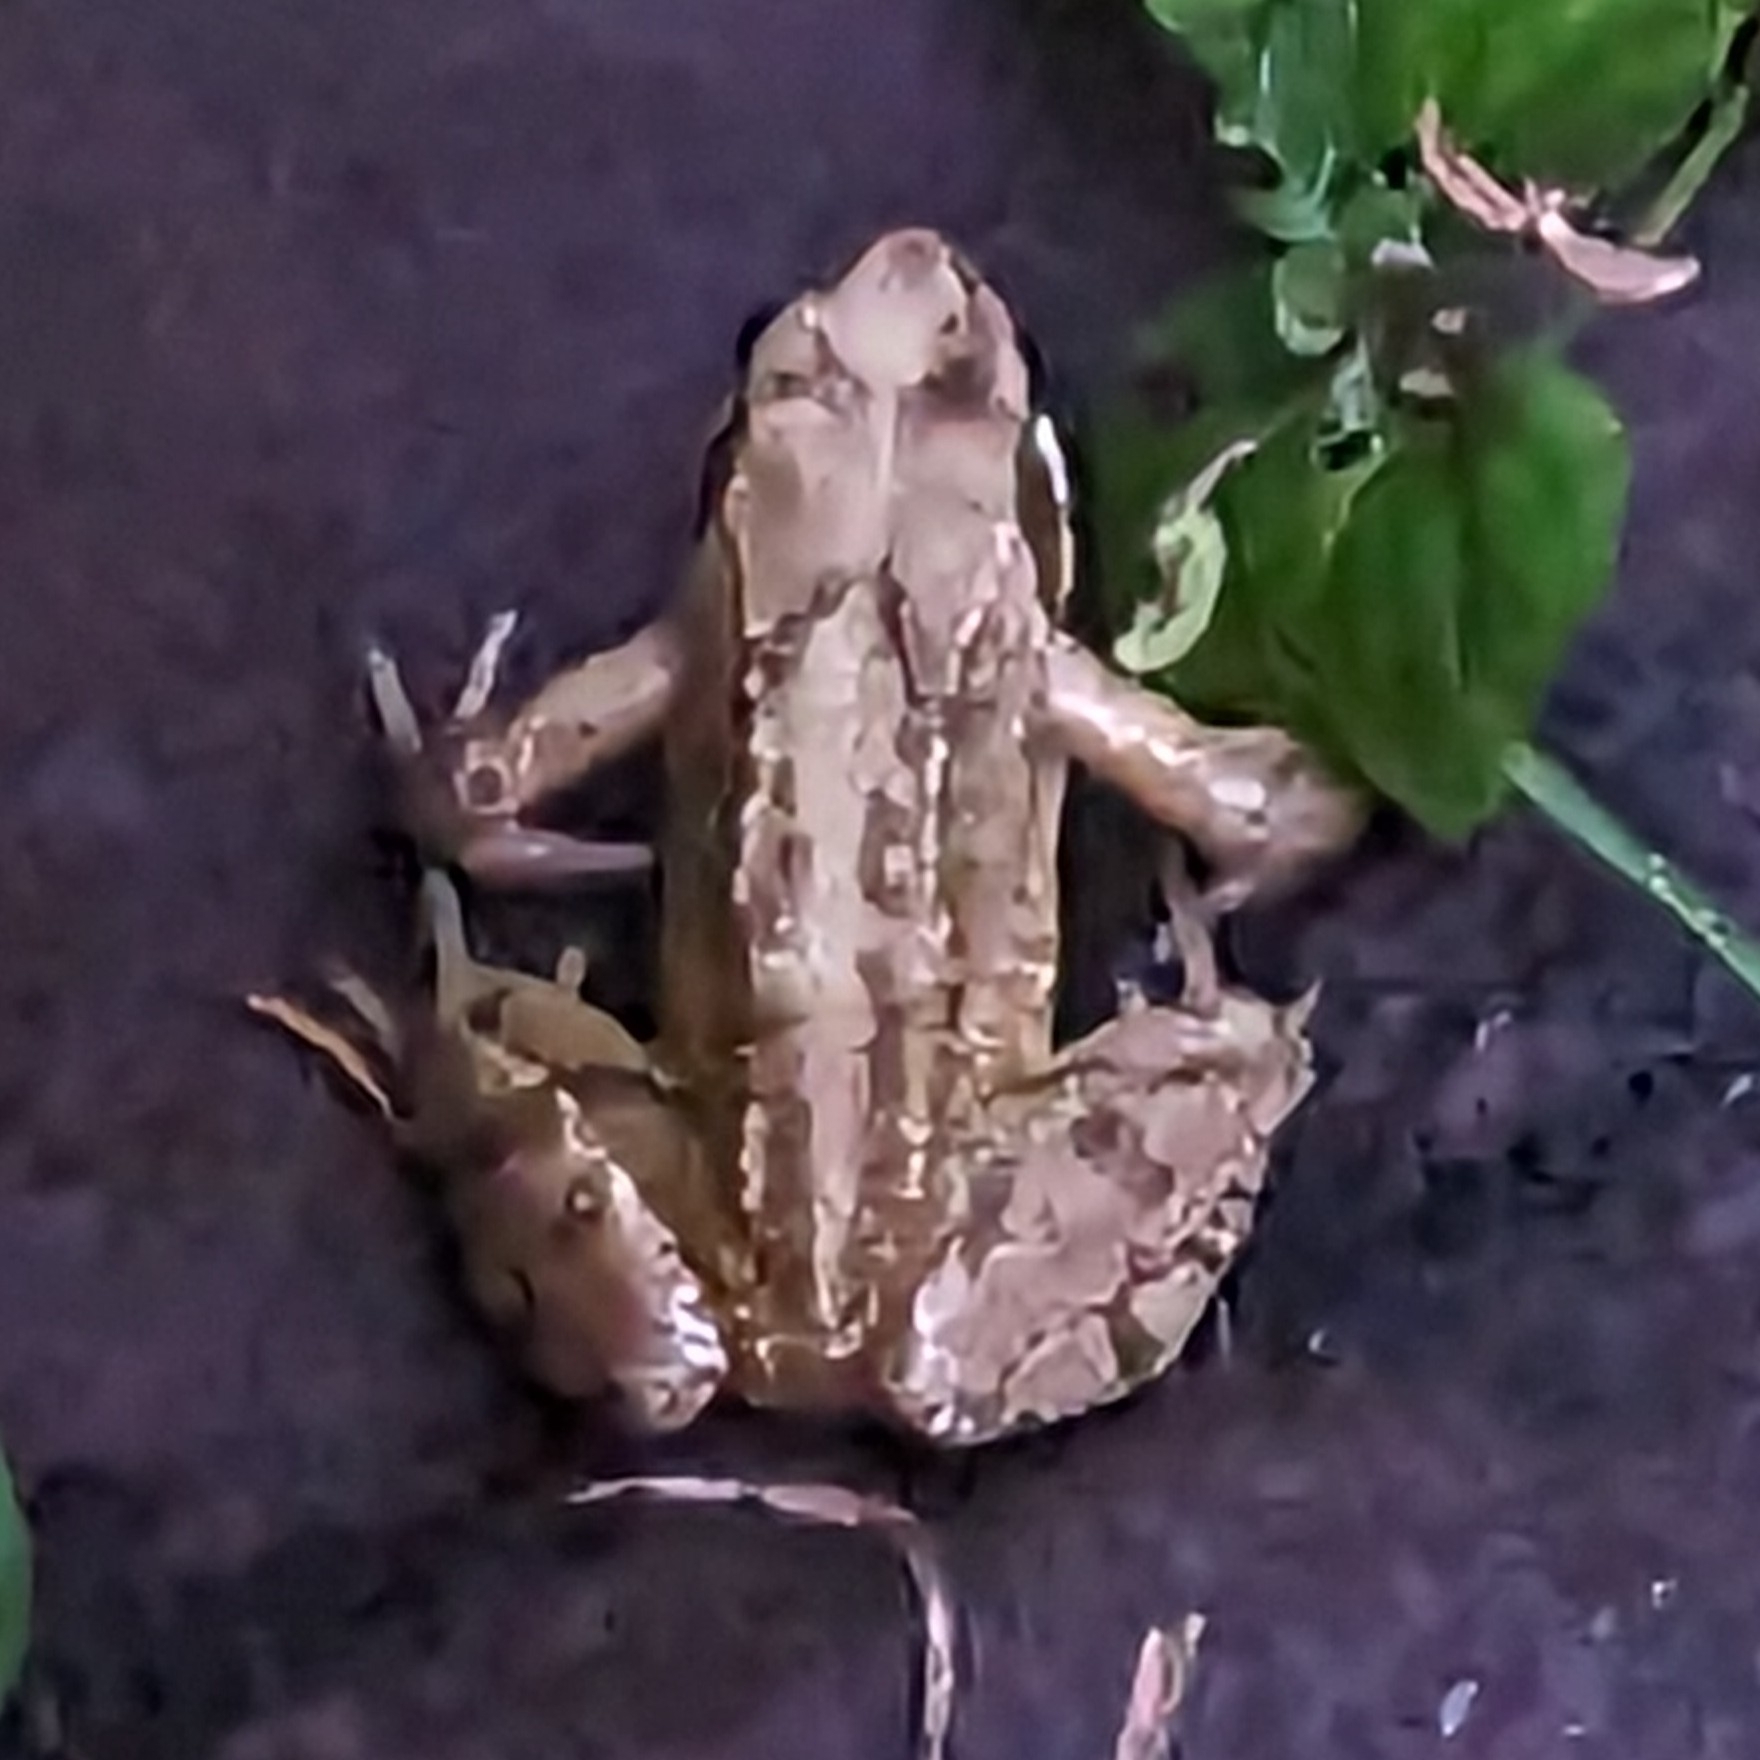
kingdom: Animalia
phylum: Chordata
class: Amphibia
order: Anura
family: Ranidae
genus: Rana
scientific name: Rana temporaria
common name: Common frog
